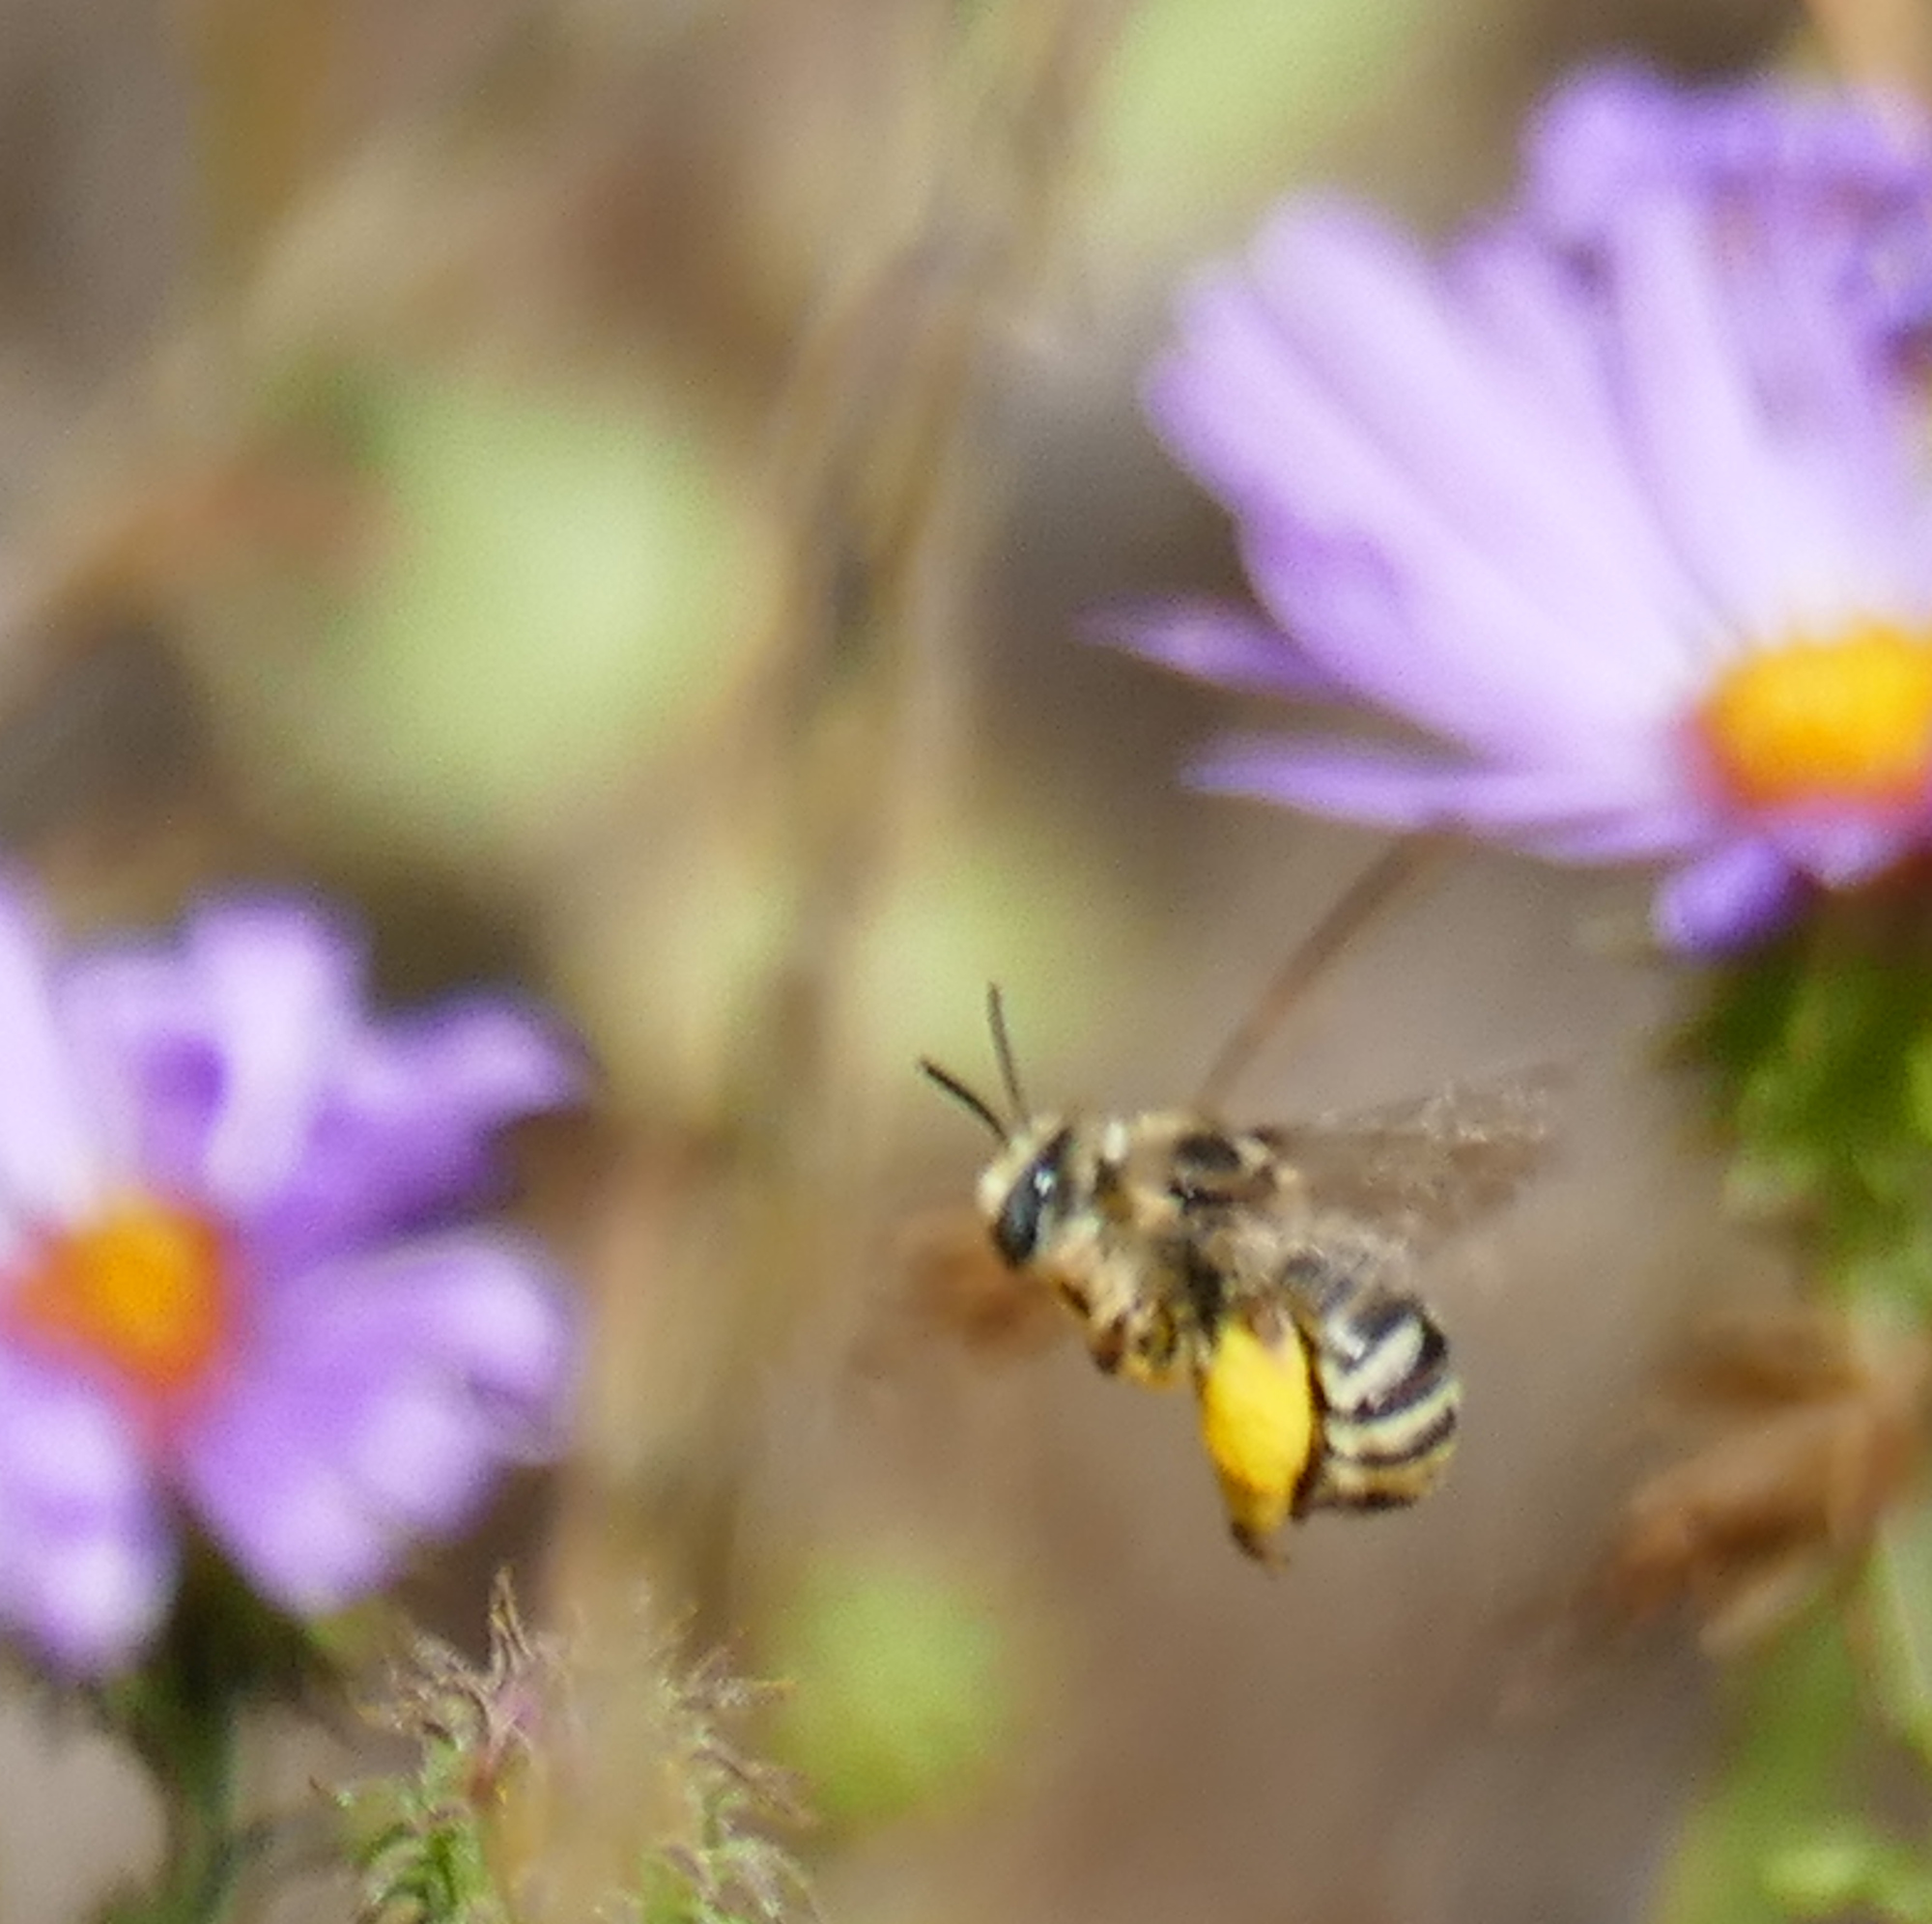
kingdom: Animalia
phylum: Arthropoda
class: Insecta
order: Hymenoptera
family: Apidae
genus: Melissodes
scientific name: Melissodes
